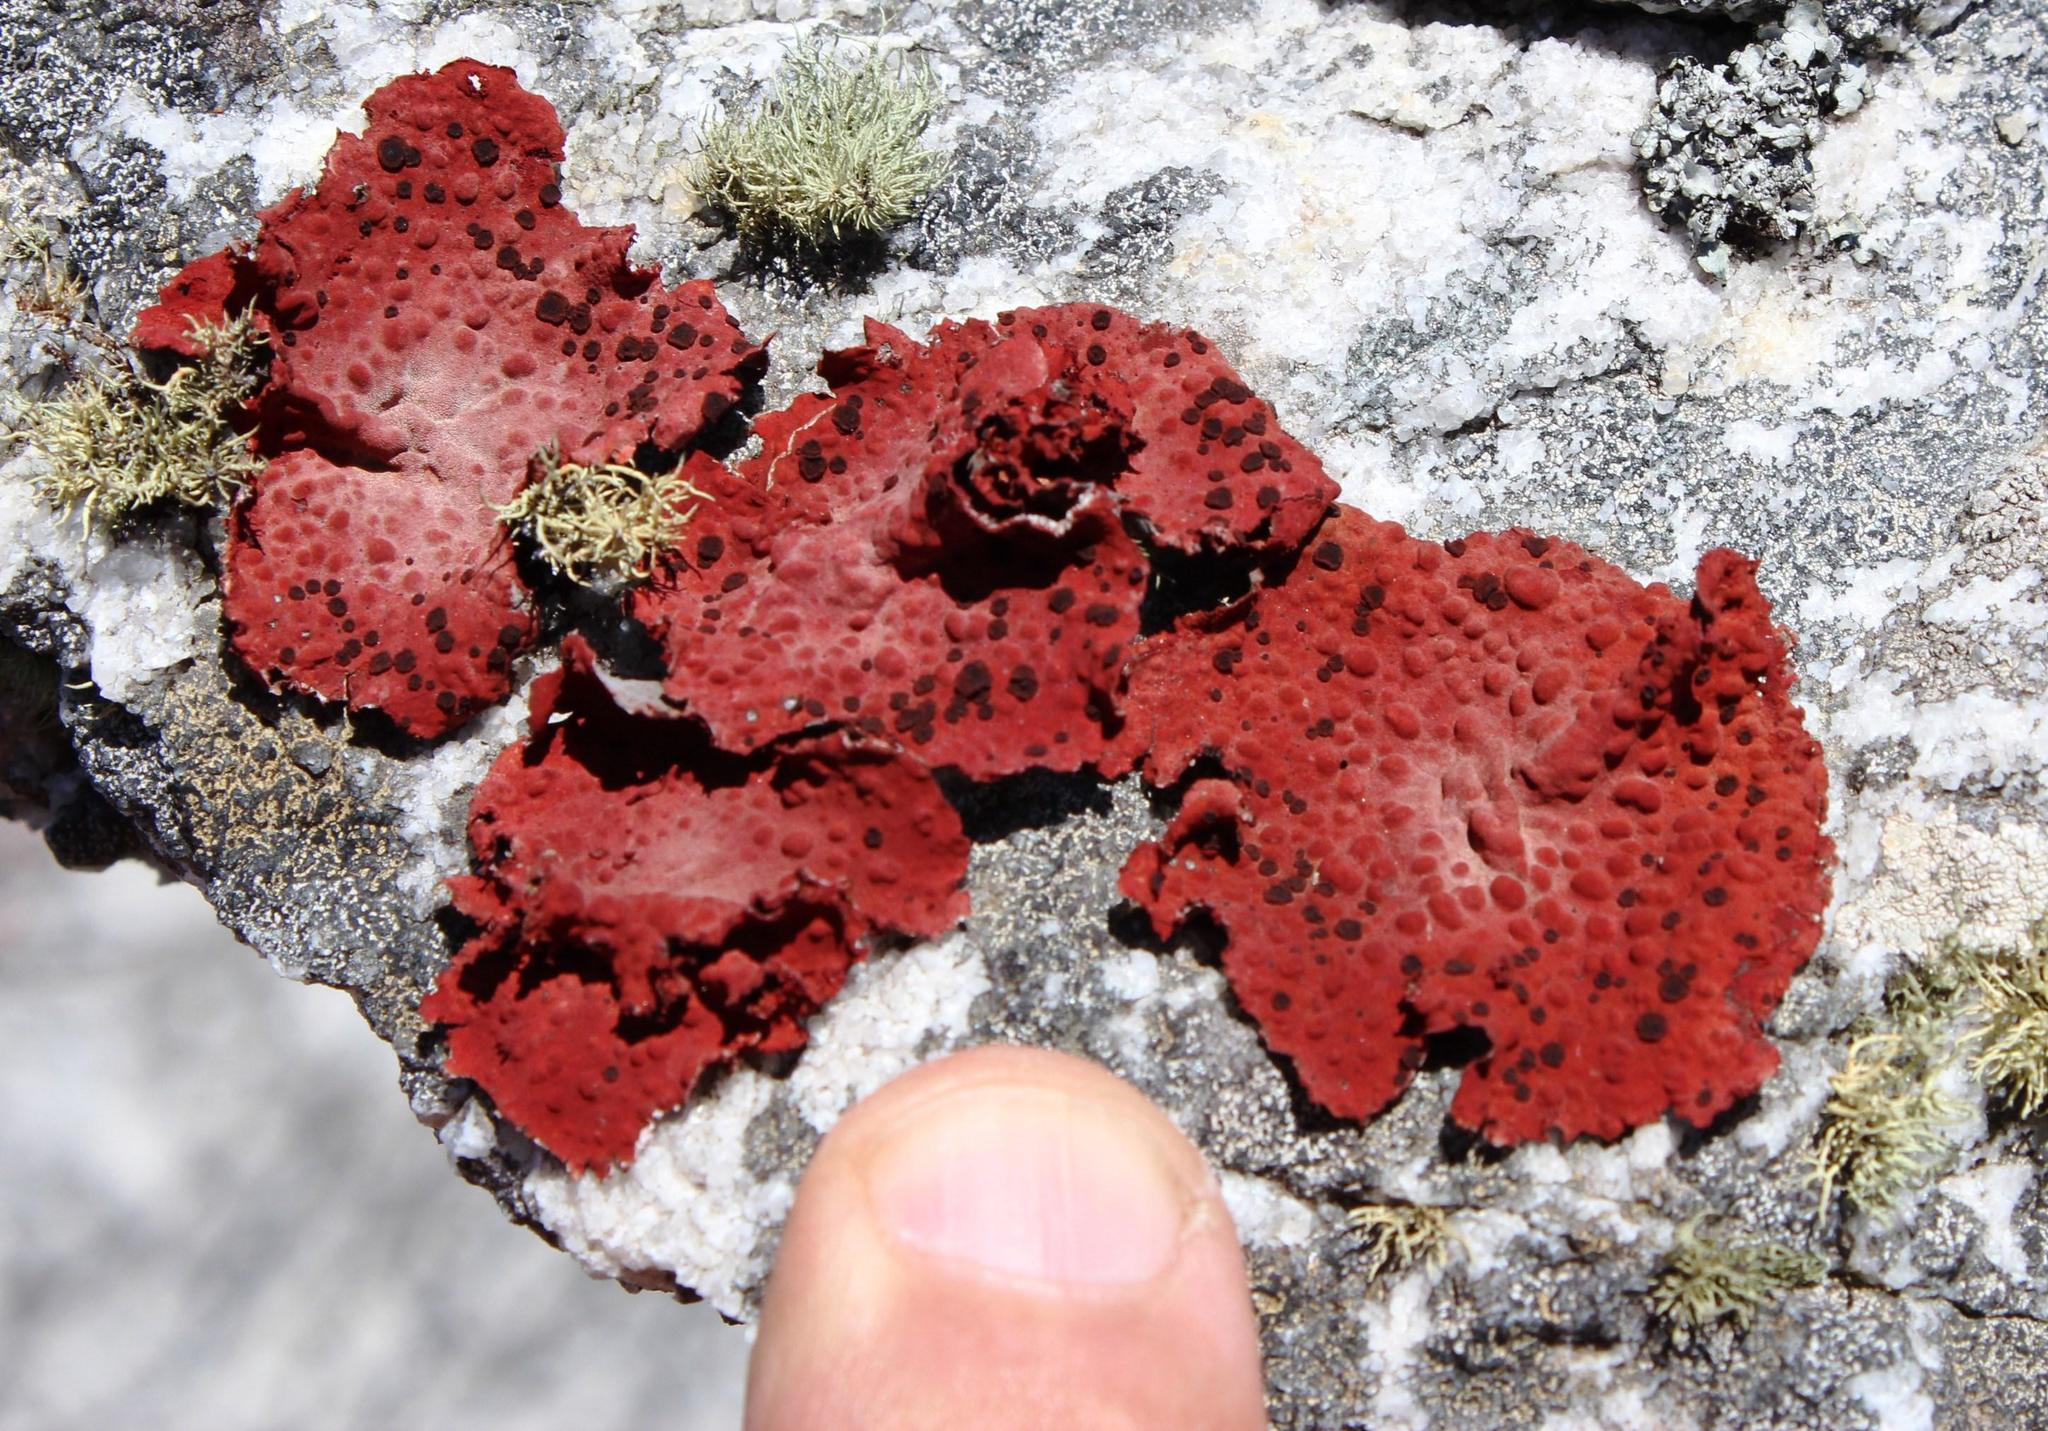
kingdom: Fungi
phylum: Ascomycota
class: Lecanoromycetes
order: Umbilicariales
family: Umbilicariaceae
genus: Lasallia
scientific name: Lasallia rubiginosa
